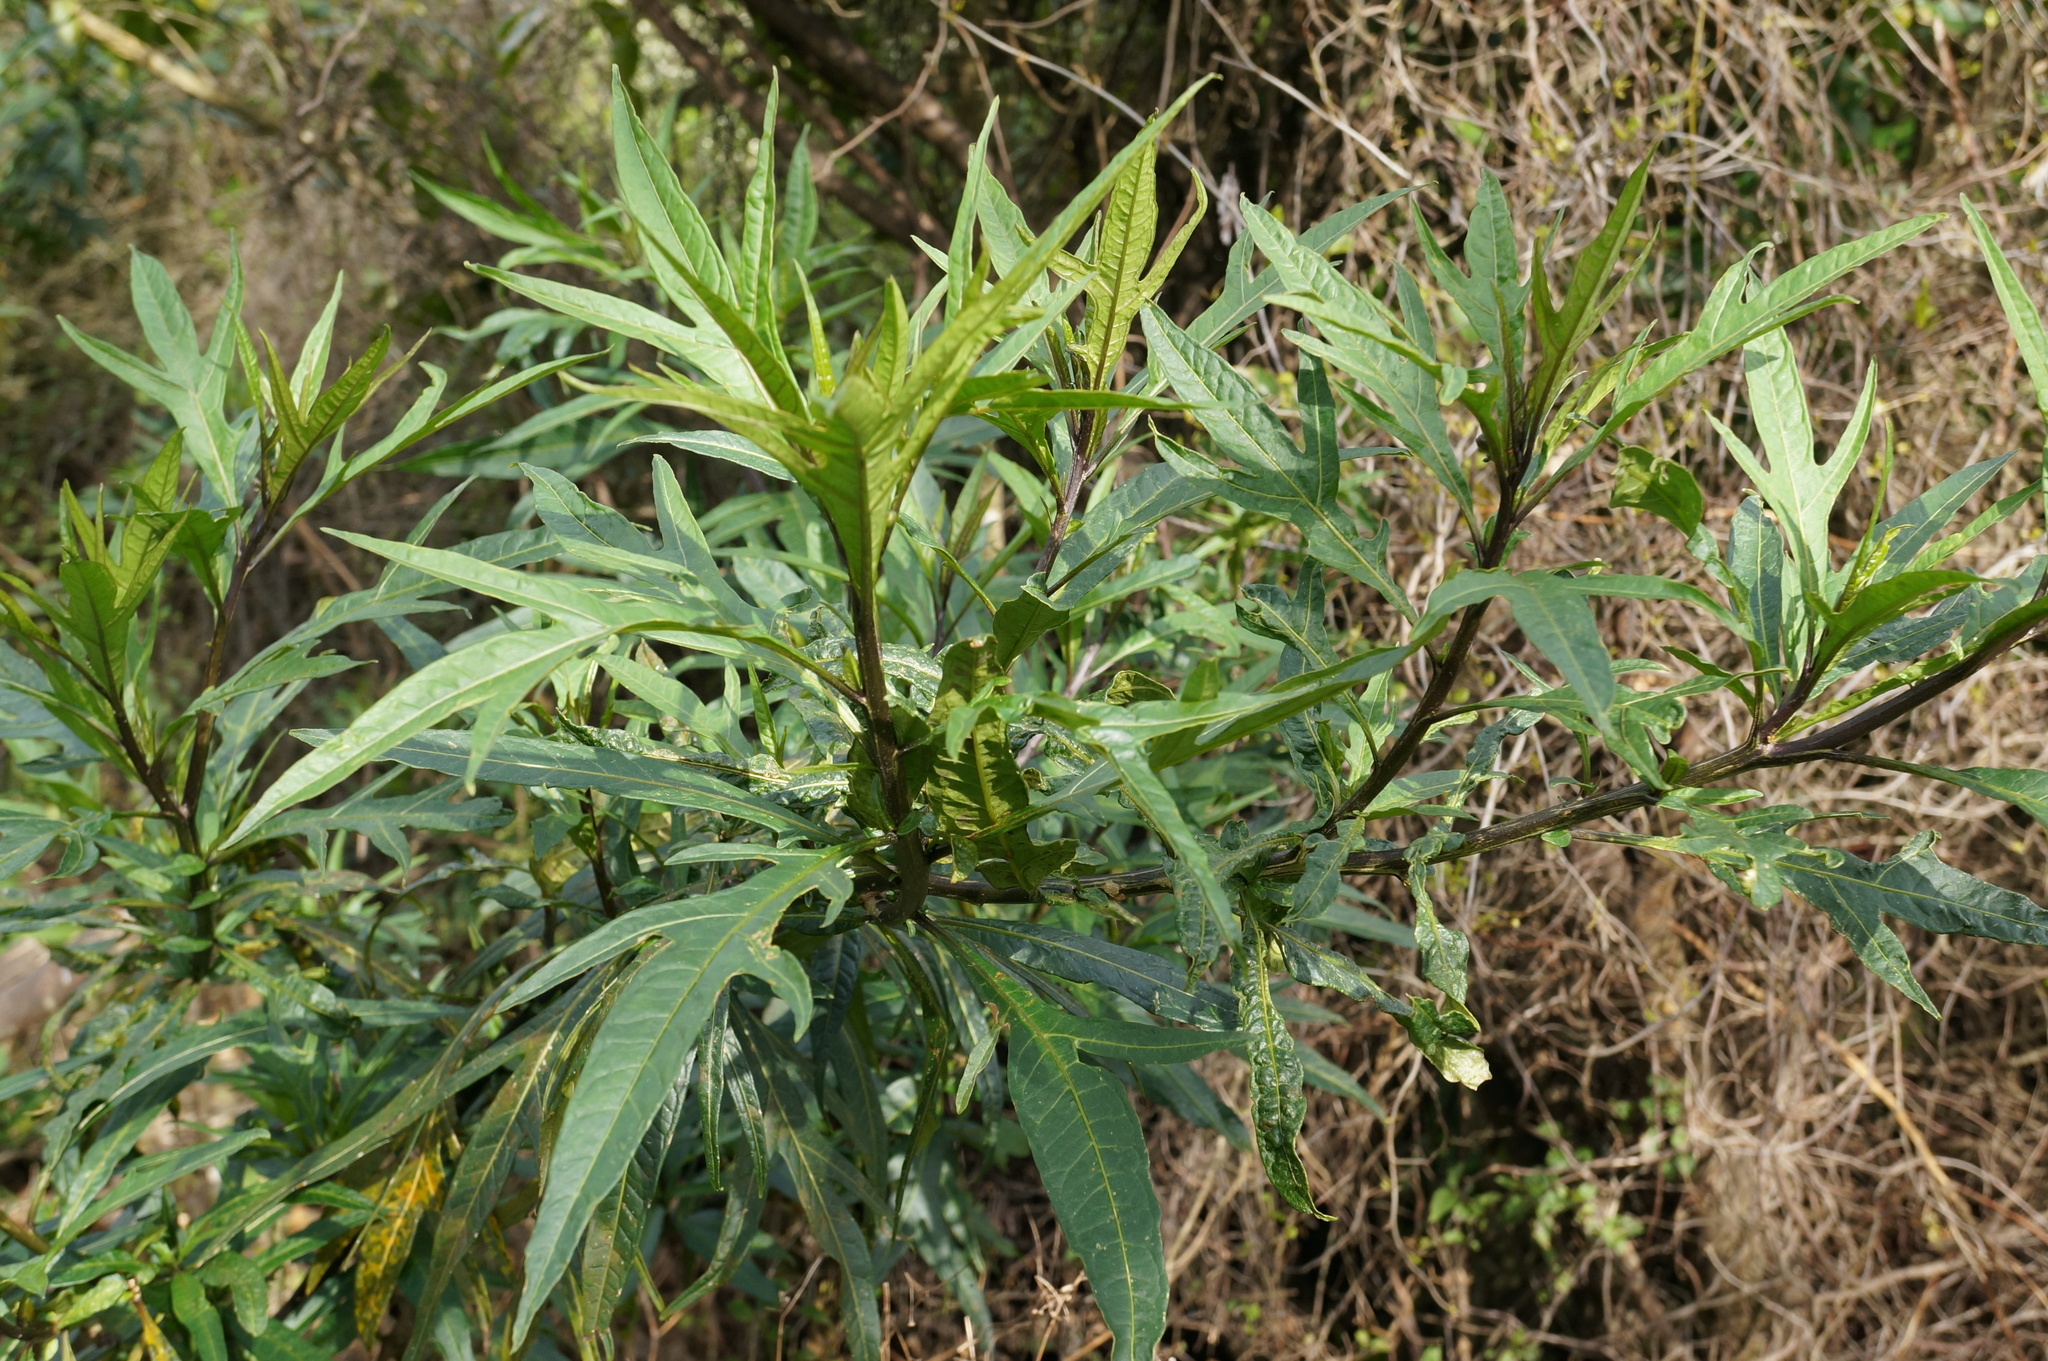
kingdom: Plantae
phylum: Tracheophyta
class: Magnoliopsida
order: Solanales
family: Solanaceae
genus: Solanum
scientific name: Solanum laciniatum
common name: Kangaroo-apple
